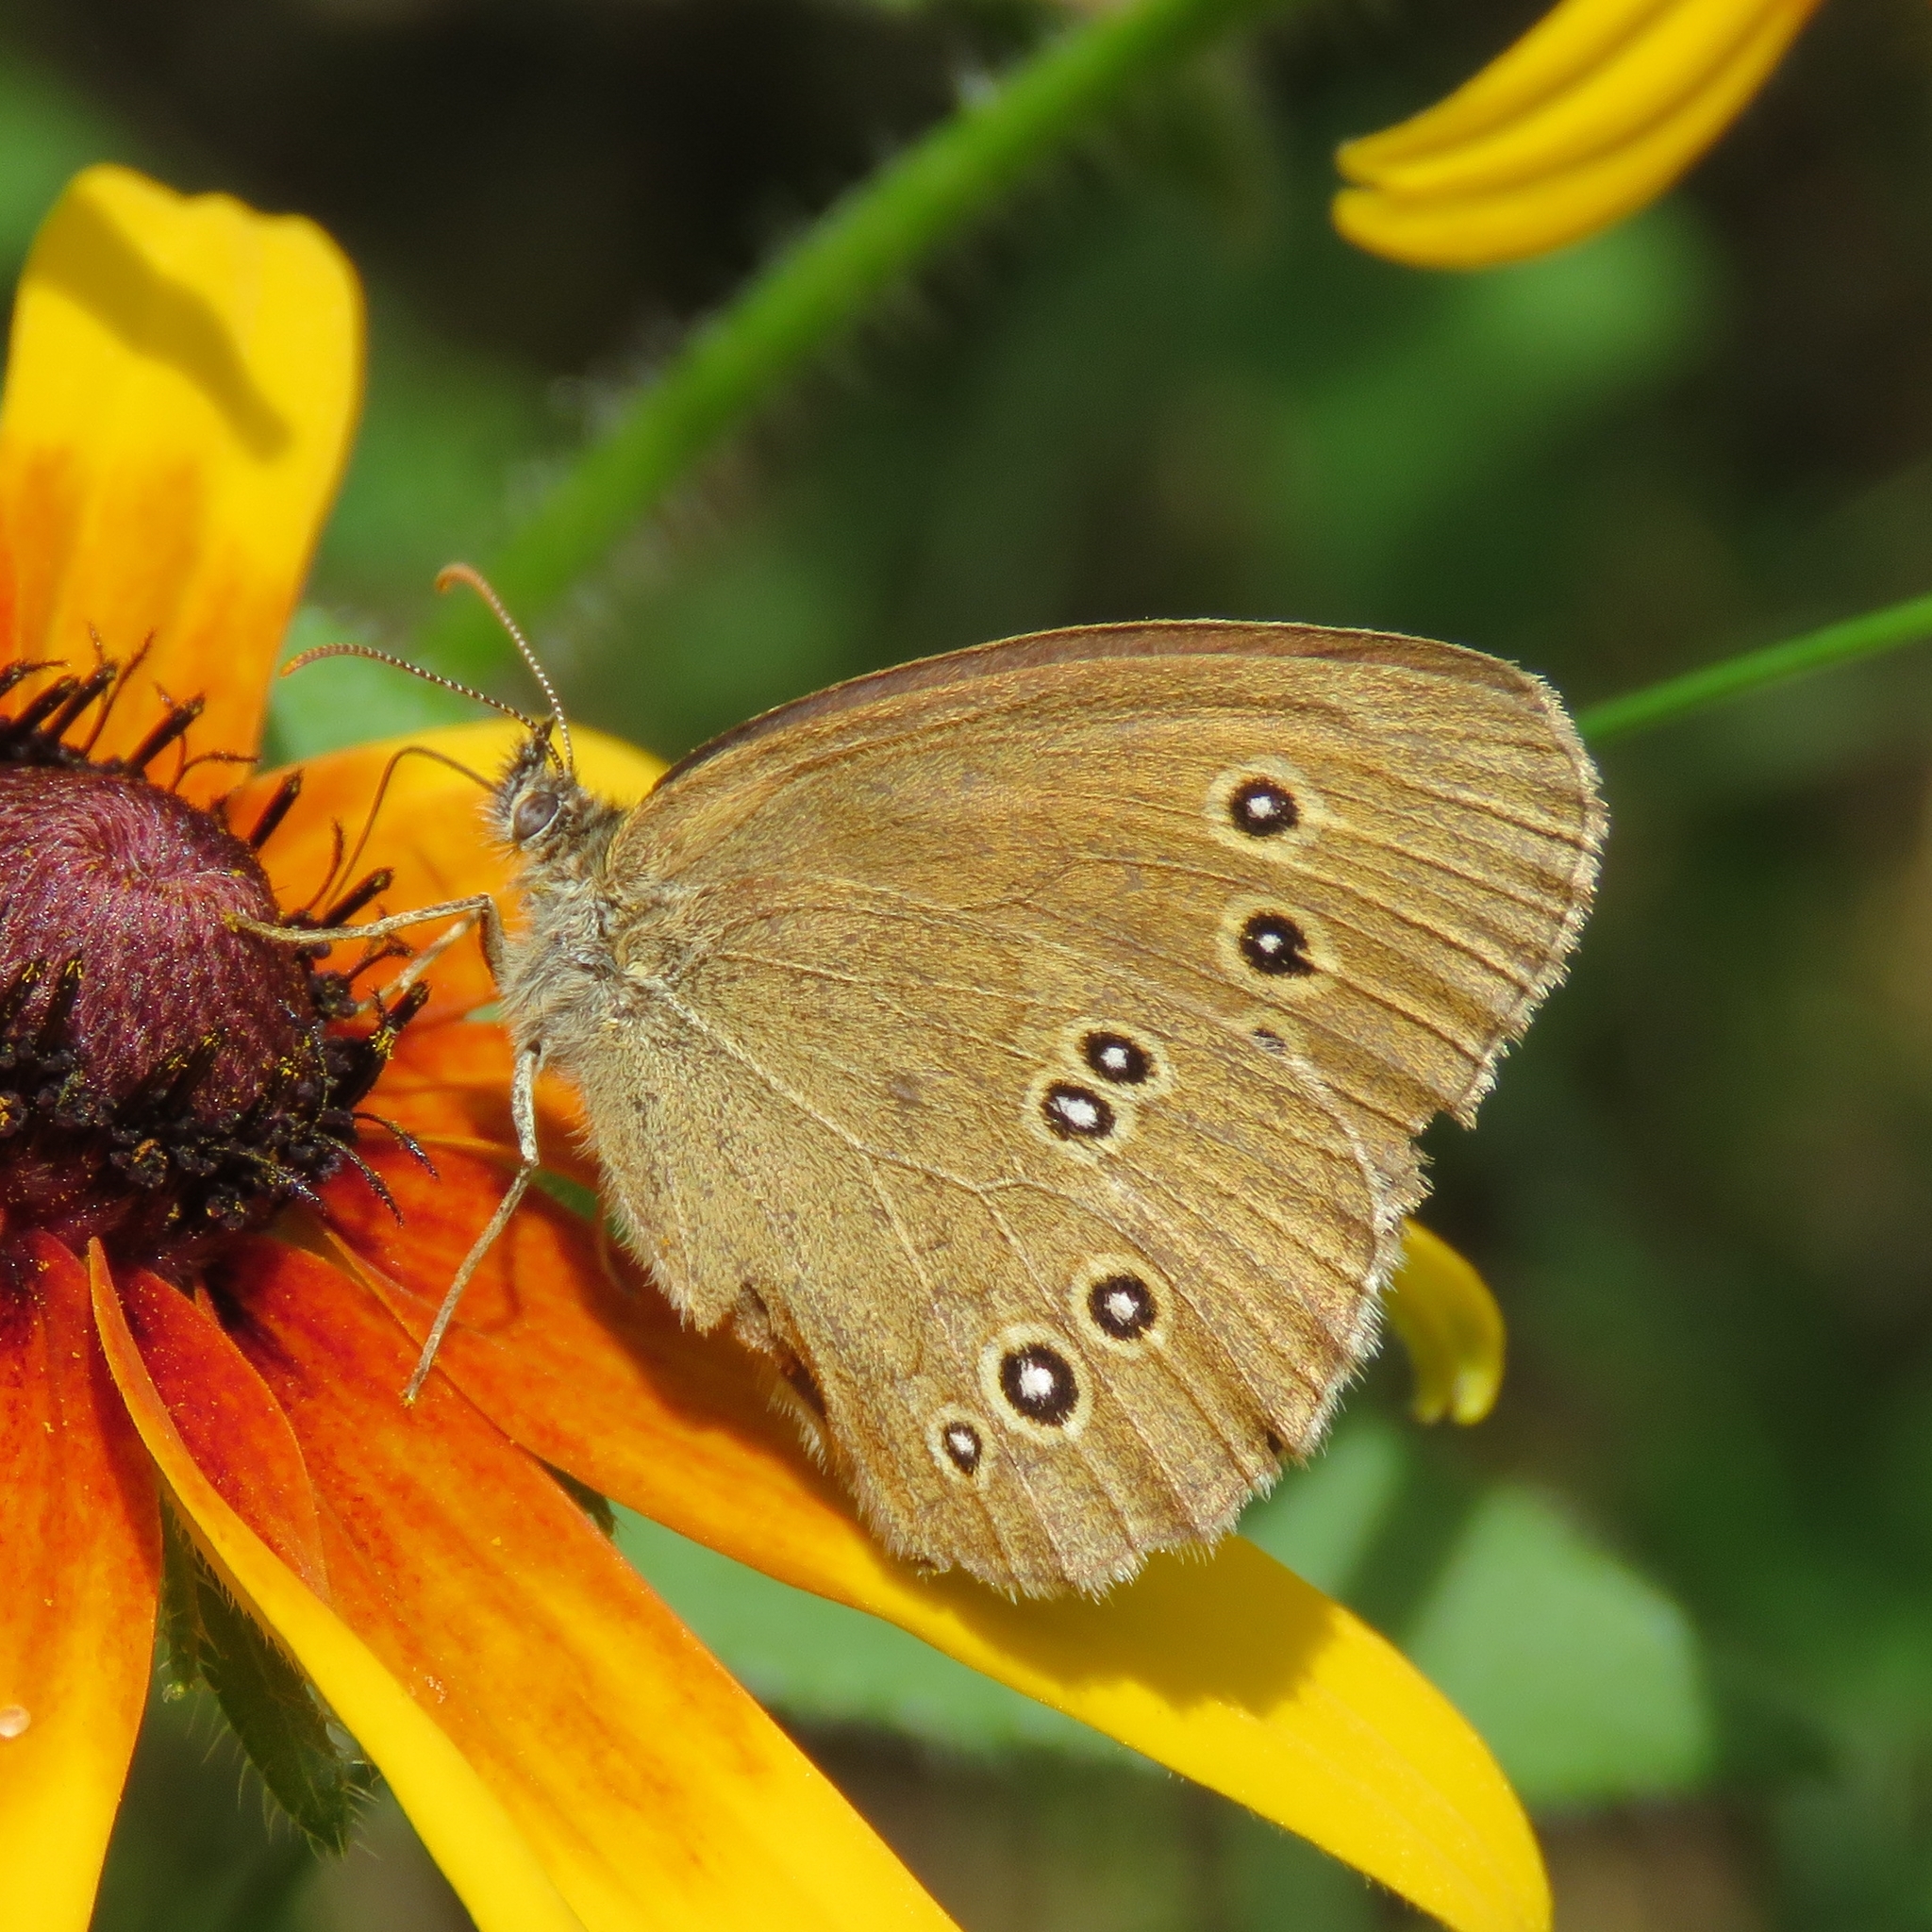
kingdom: Animalia
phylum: Arthropoda
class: Insecta
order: Lepidoptera
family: Nymphalidae
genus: Aphantopus
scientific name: Aphantopus hyperantus
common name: Ringlet
